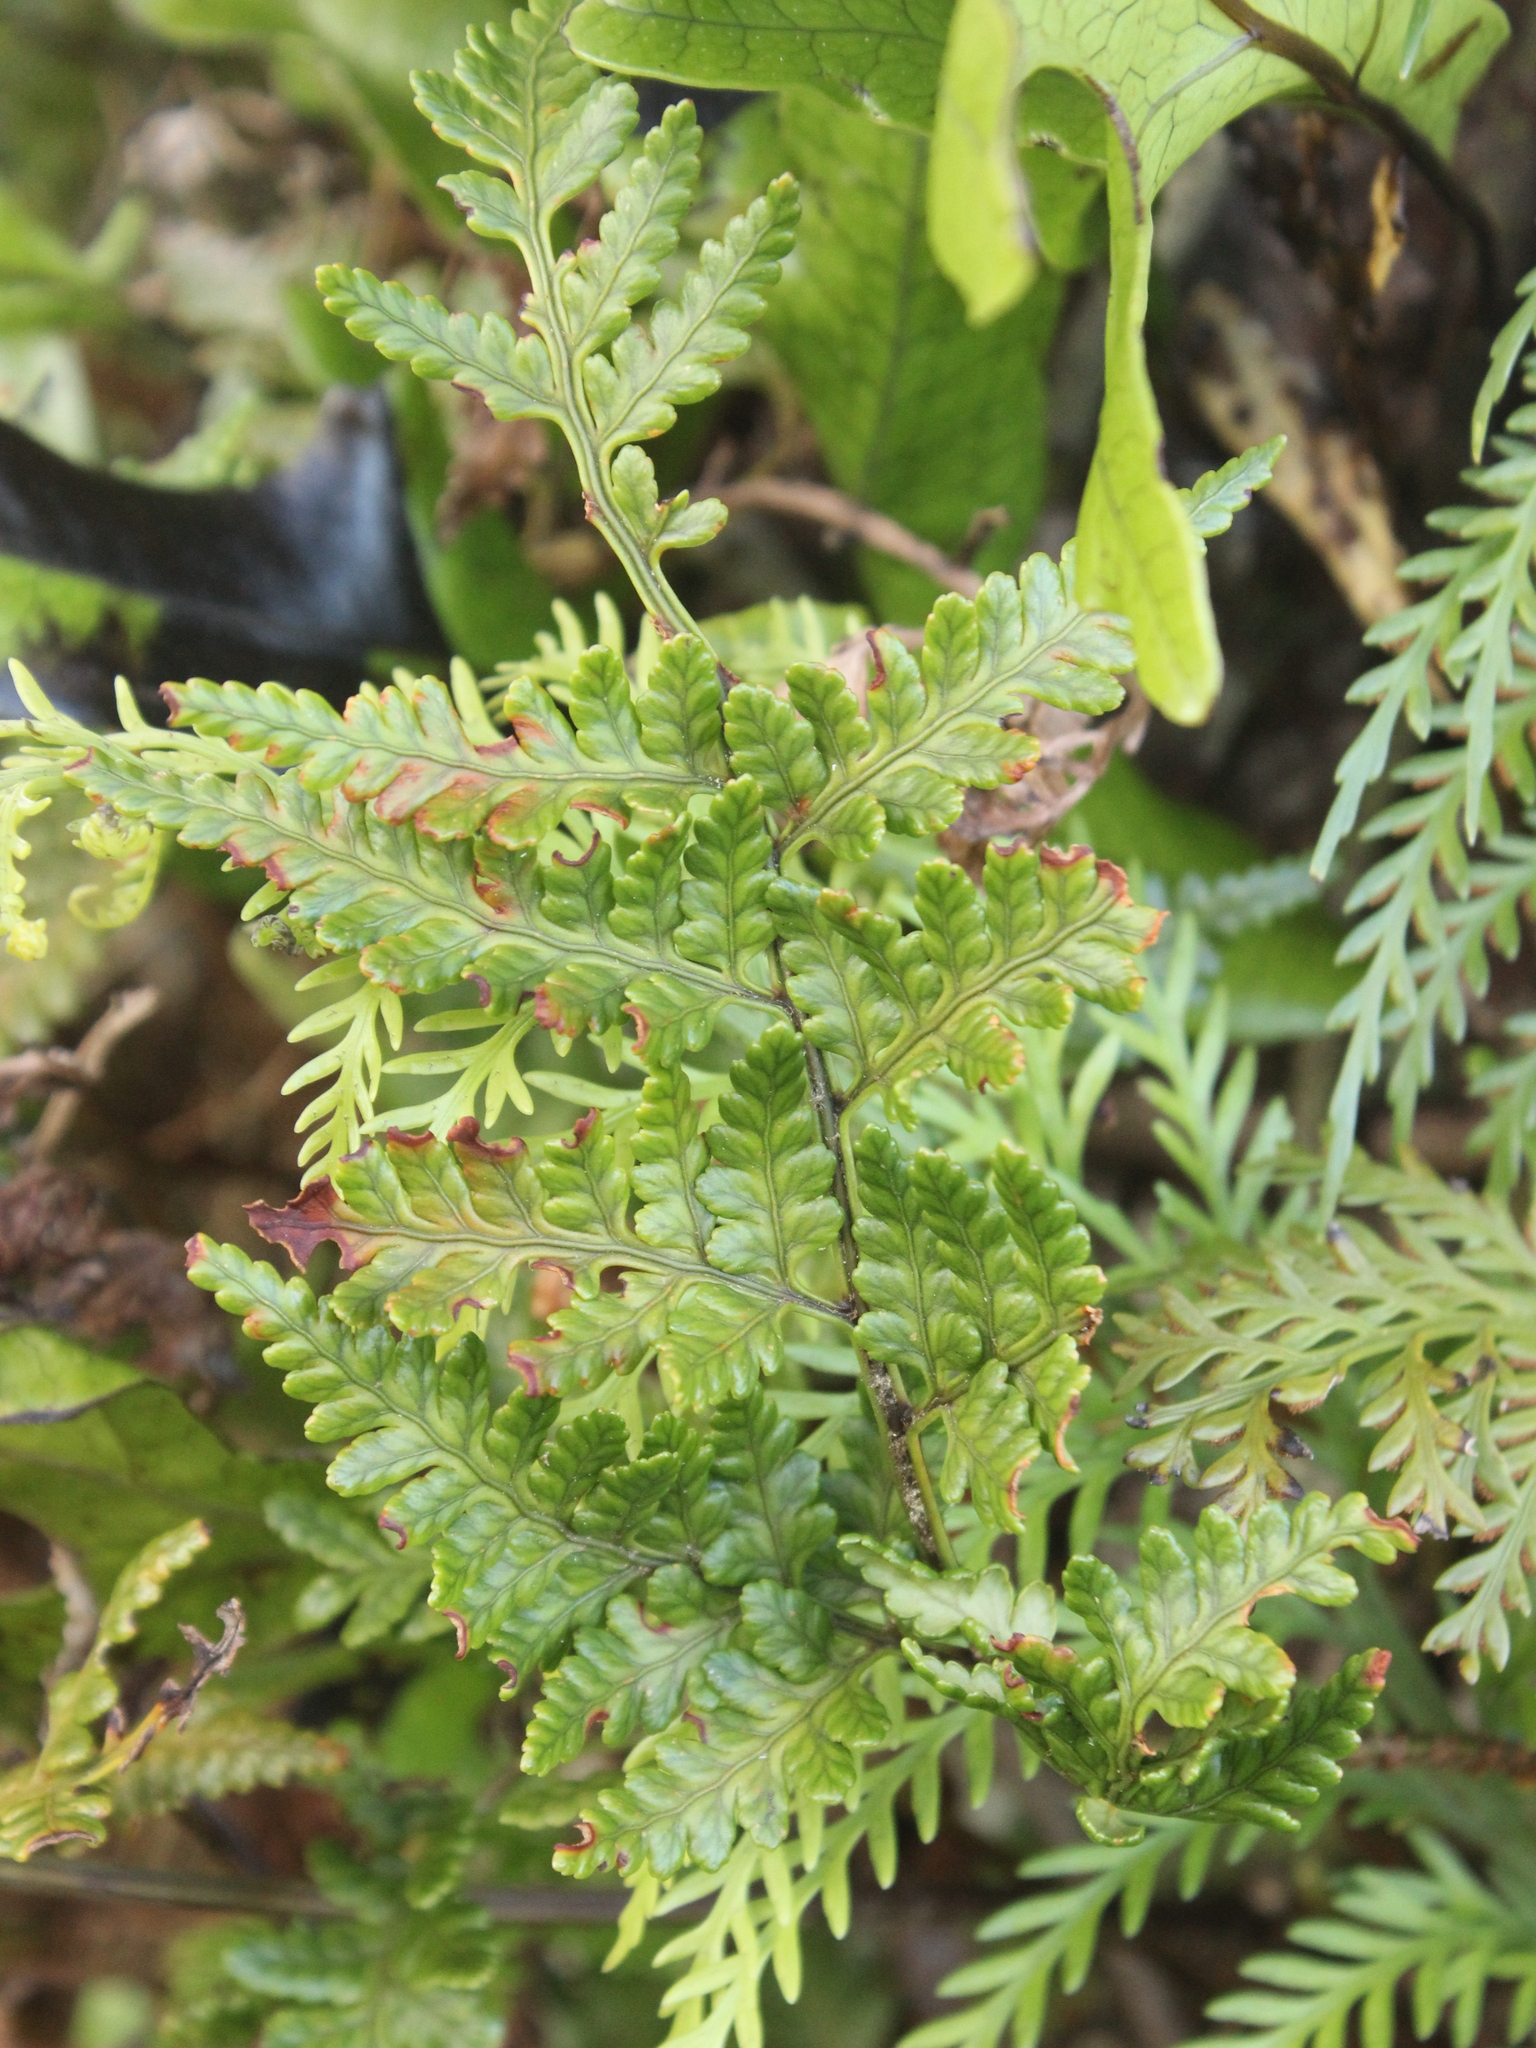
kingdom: Plantae
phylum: Tracheophyta
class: Polypodiopsida
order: Polypodiales
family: Dryopteridaceae
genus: Rumohra
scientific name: Rumohra adiantiformis
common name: Leather fern
